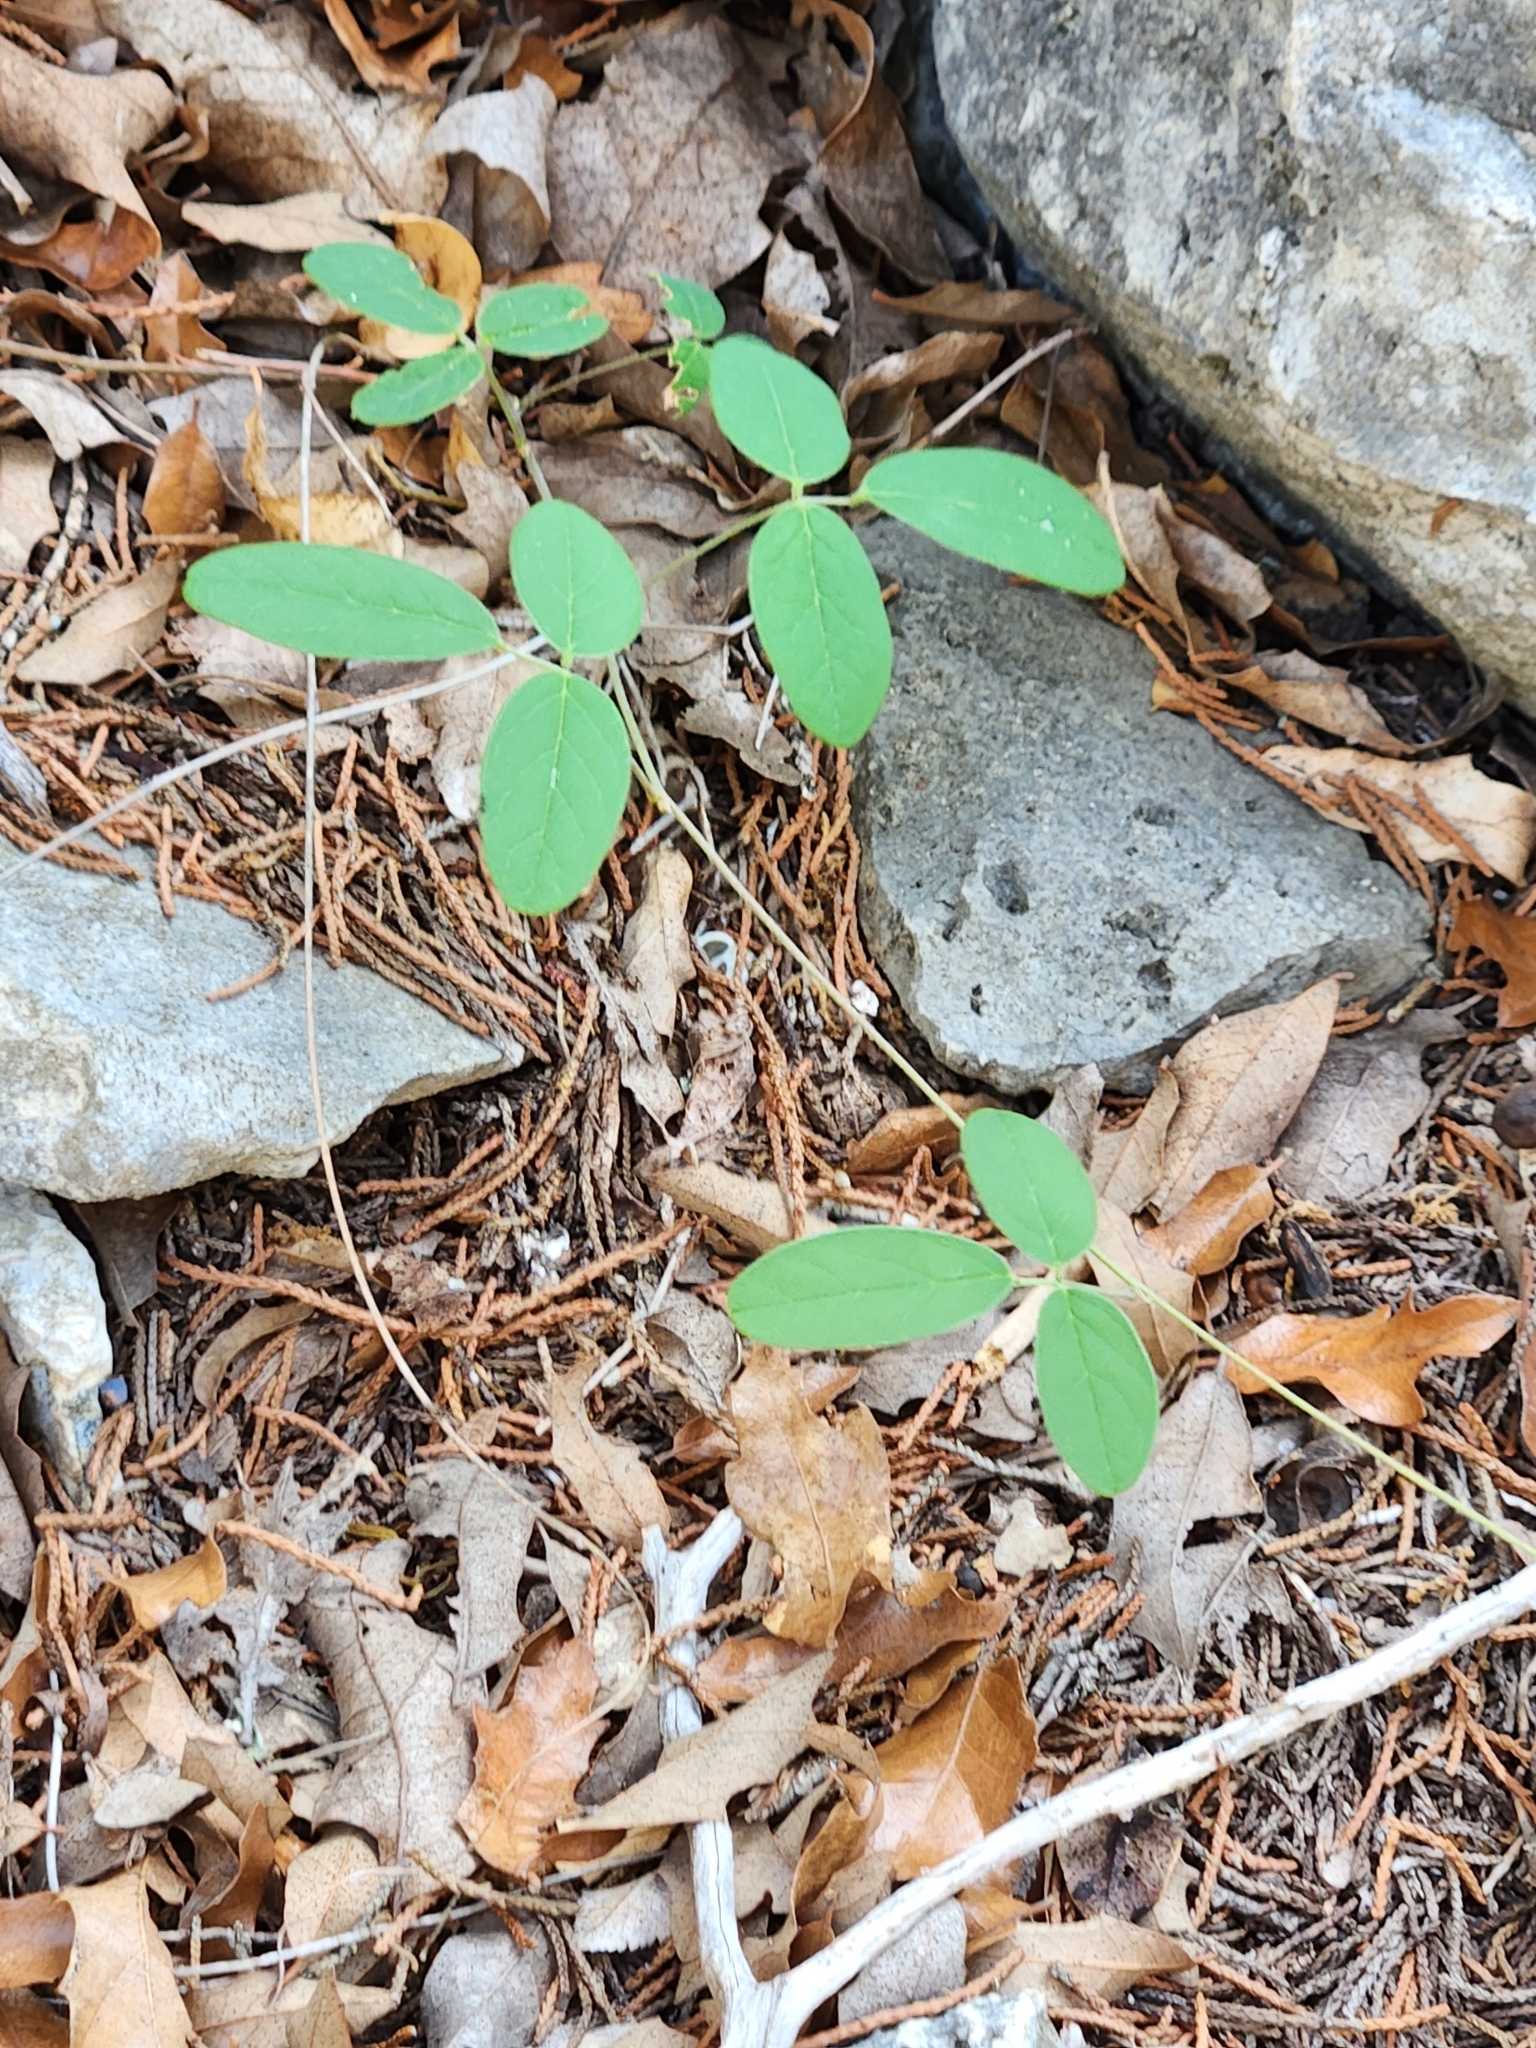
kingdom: Plantae
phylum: Tracheophyta
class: Magnoliopsida
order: Fabales
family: Fabaceae
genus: Rhynchosia
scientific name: Rhynchosia senna
